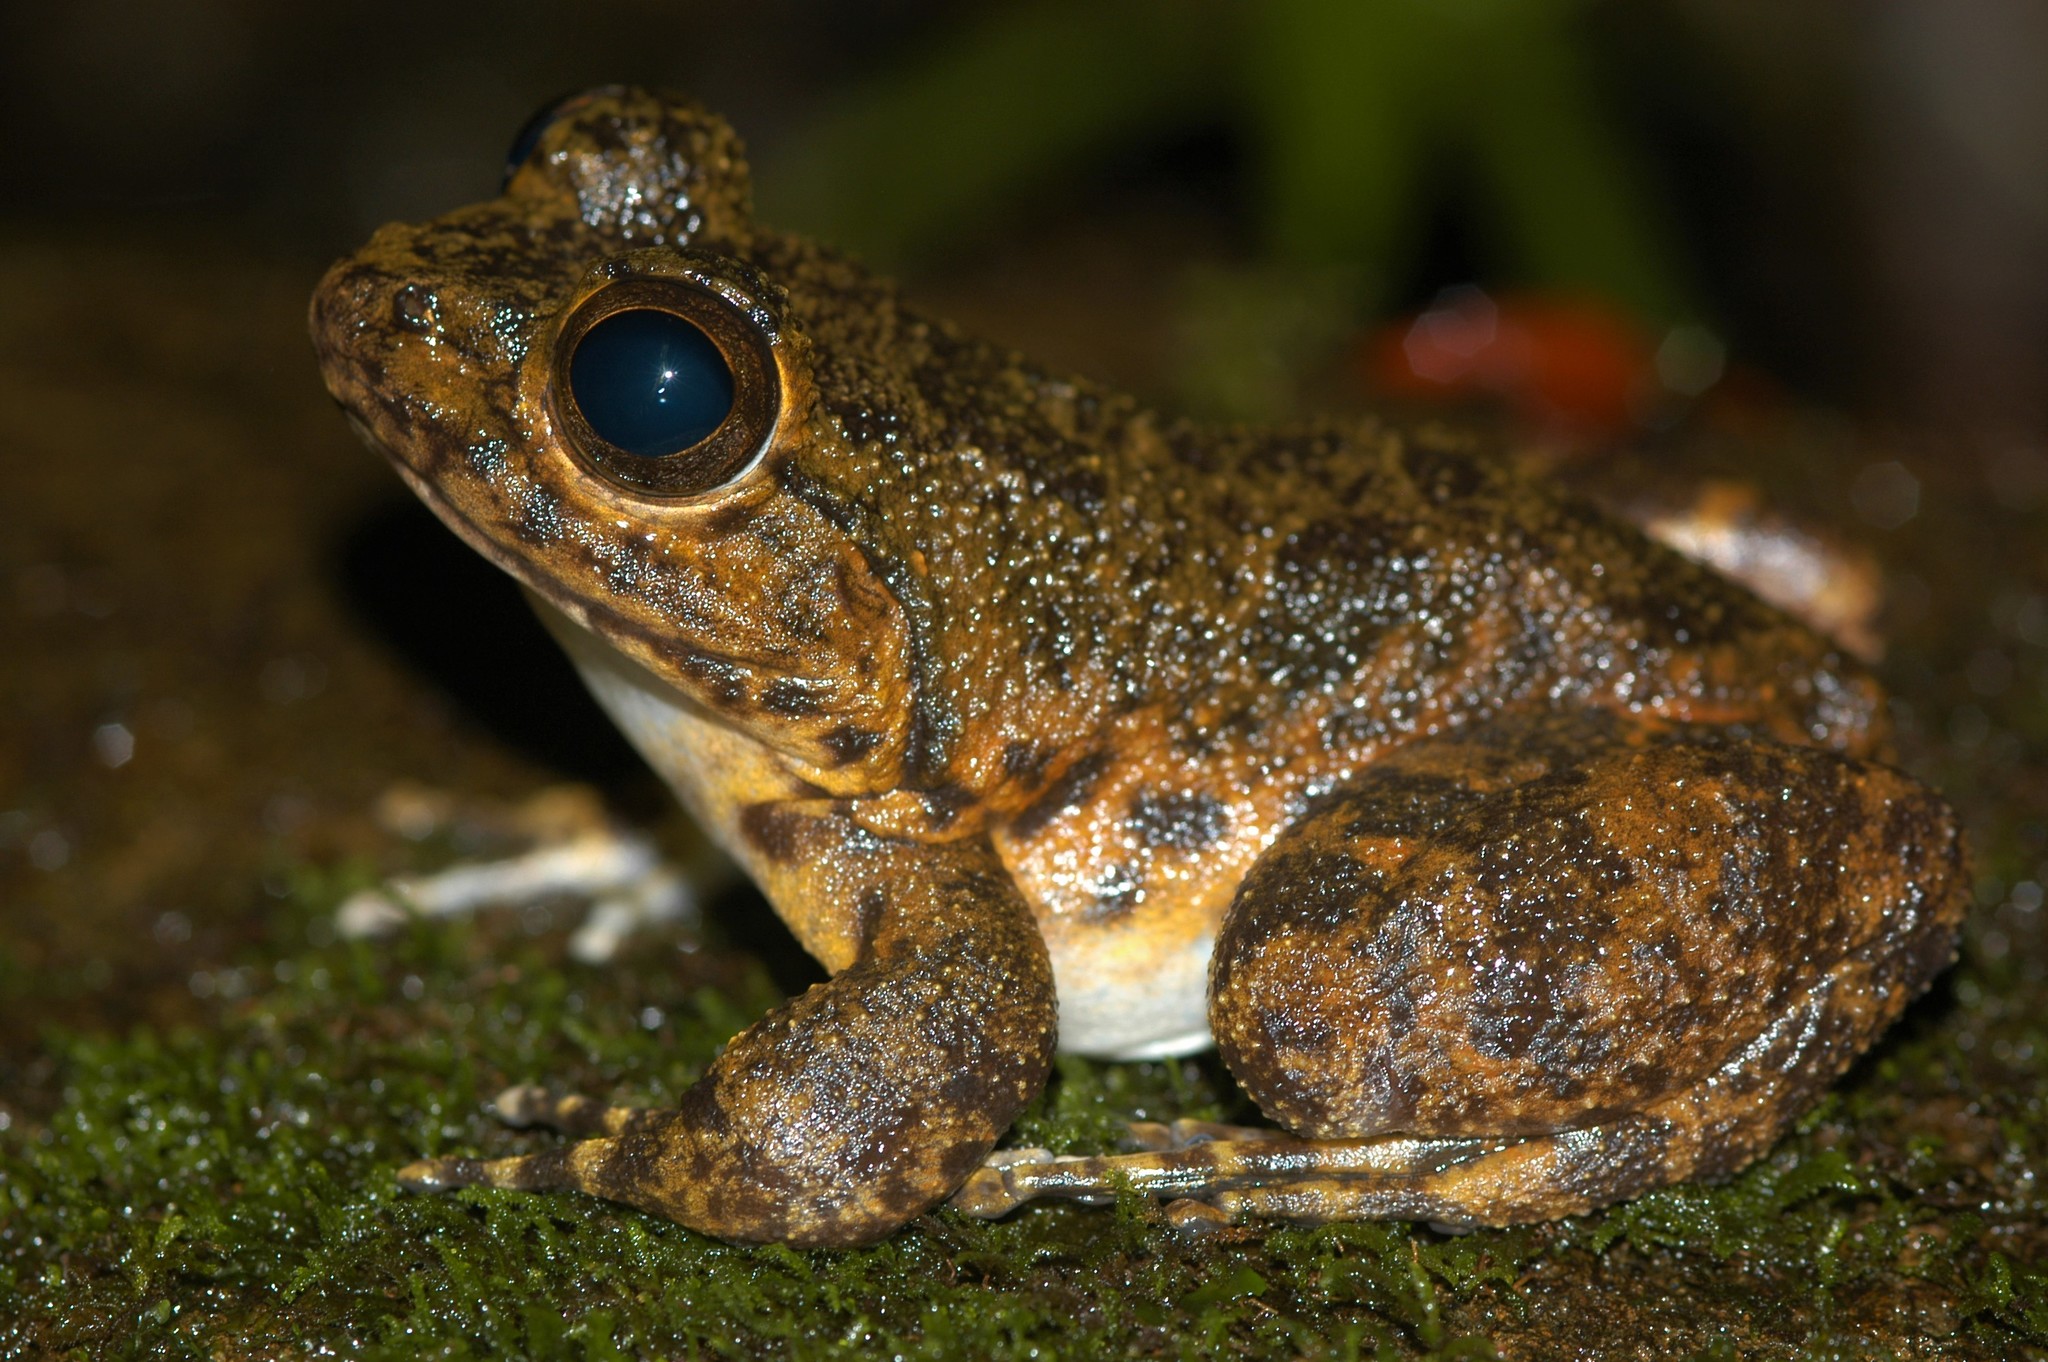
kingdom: Animalia
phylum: Chordata
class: Amphibia
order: Anura
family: Mantellidae
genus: Mantidactylus
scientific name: Mantidactylus grandidieri
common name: Grandidier's madagascar frog
